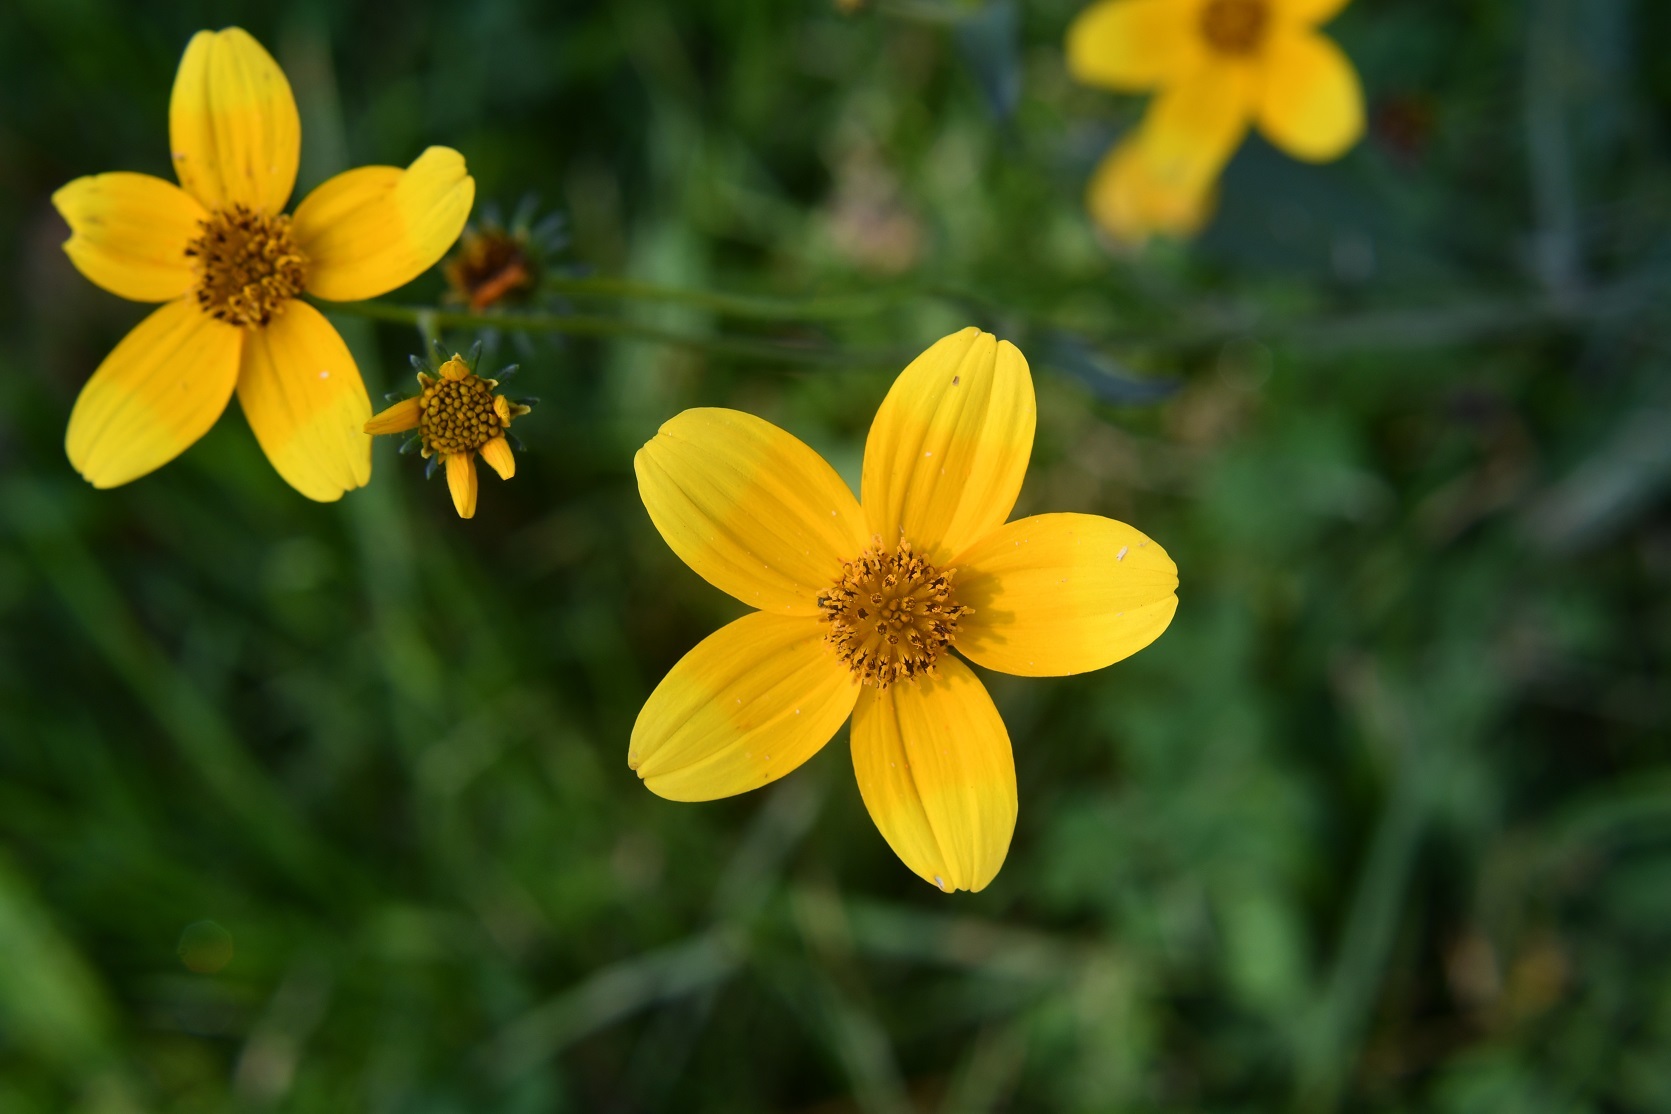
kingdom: Plantae
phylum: Tracheophyta
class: Magnoliopsida
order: Asterales
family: Asteraceae
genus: Bidens
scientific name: Bidens aurea
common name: Arizona beggar-ticks
